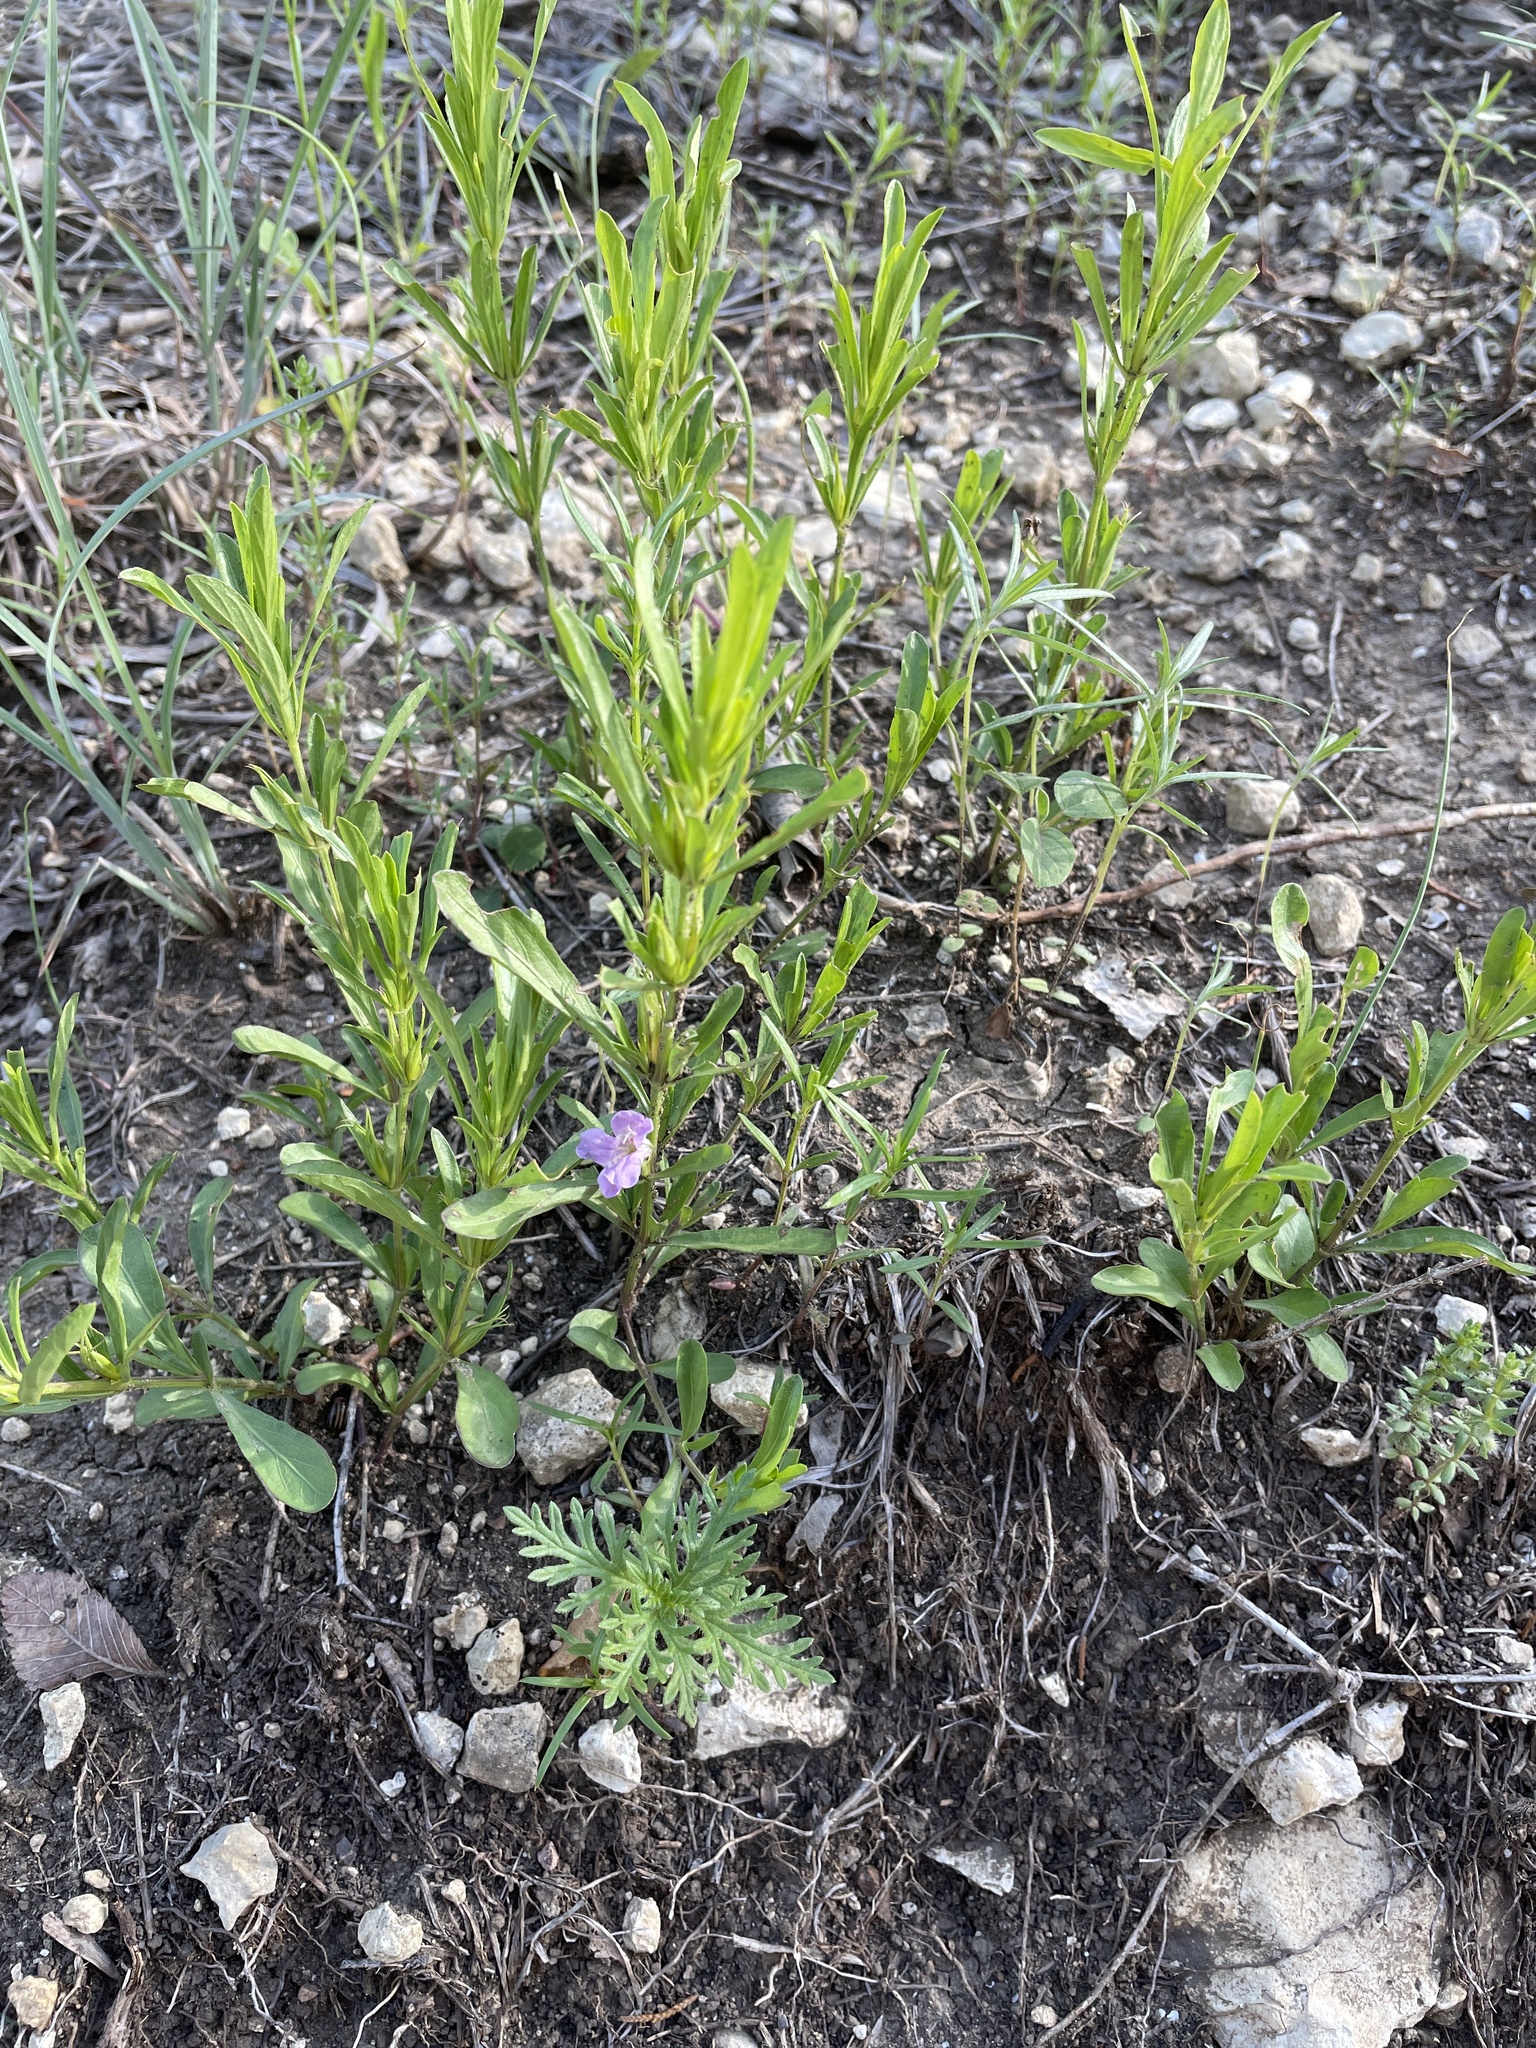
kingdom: Plantae
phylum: Tracheophyta
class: Magnoliopsida
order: Lamiales
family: Acanthaceae
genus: Dyschoriste
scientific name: Dyschoriste linearis
